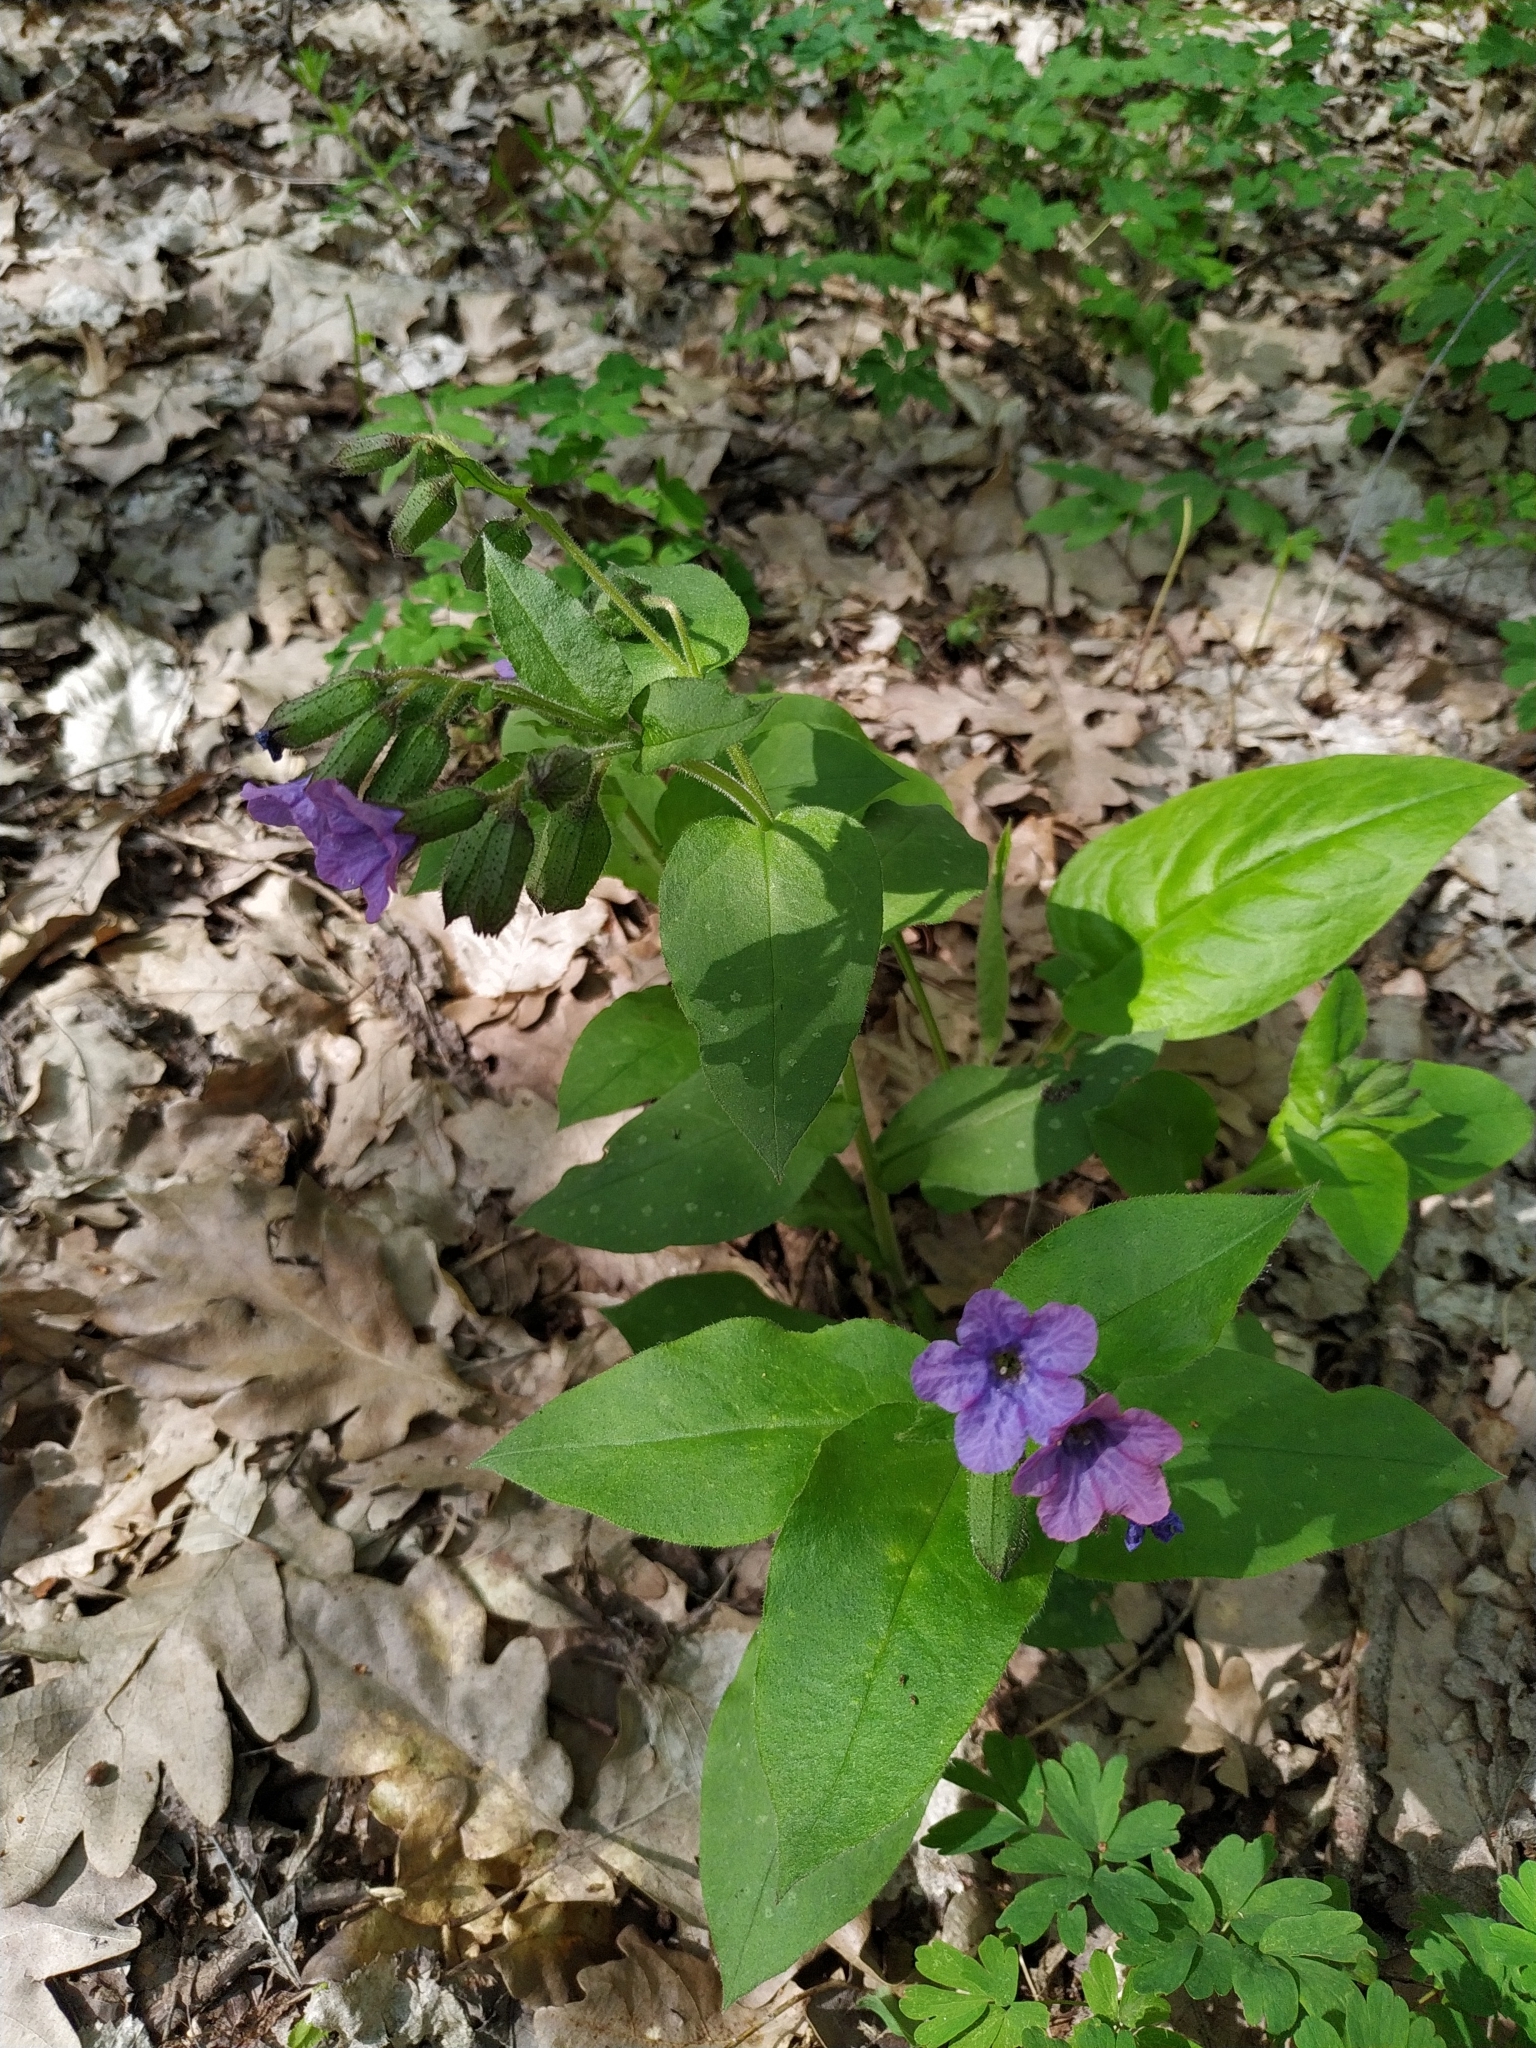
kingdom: Plantae
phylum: Tracheophyta
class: Magnoliopsida
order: Boraginales
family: Boraginaceae
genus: Pulmonaria
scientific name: Pulmonaria obscura
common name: Suffolk lungwort
